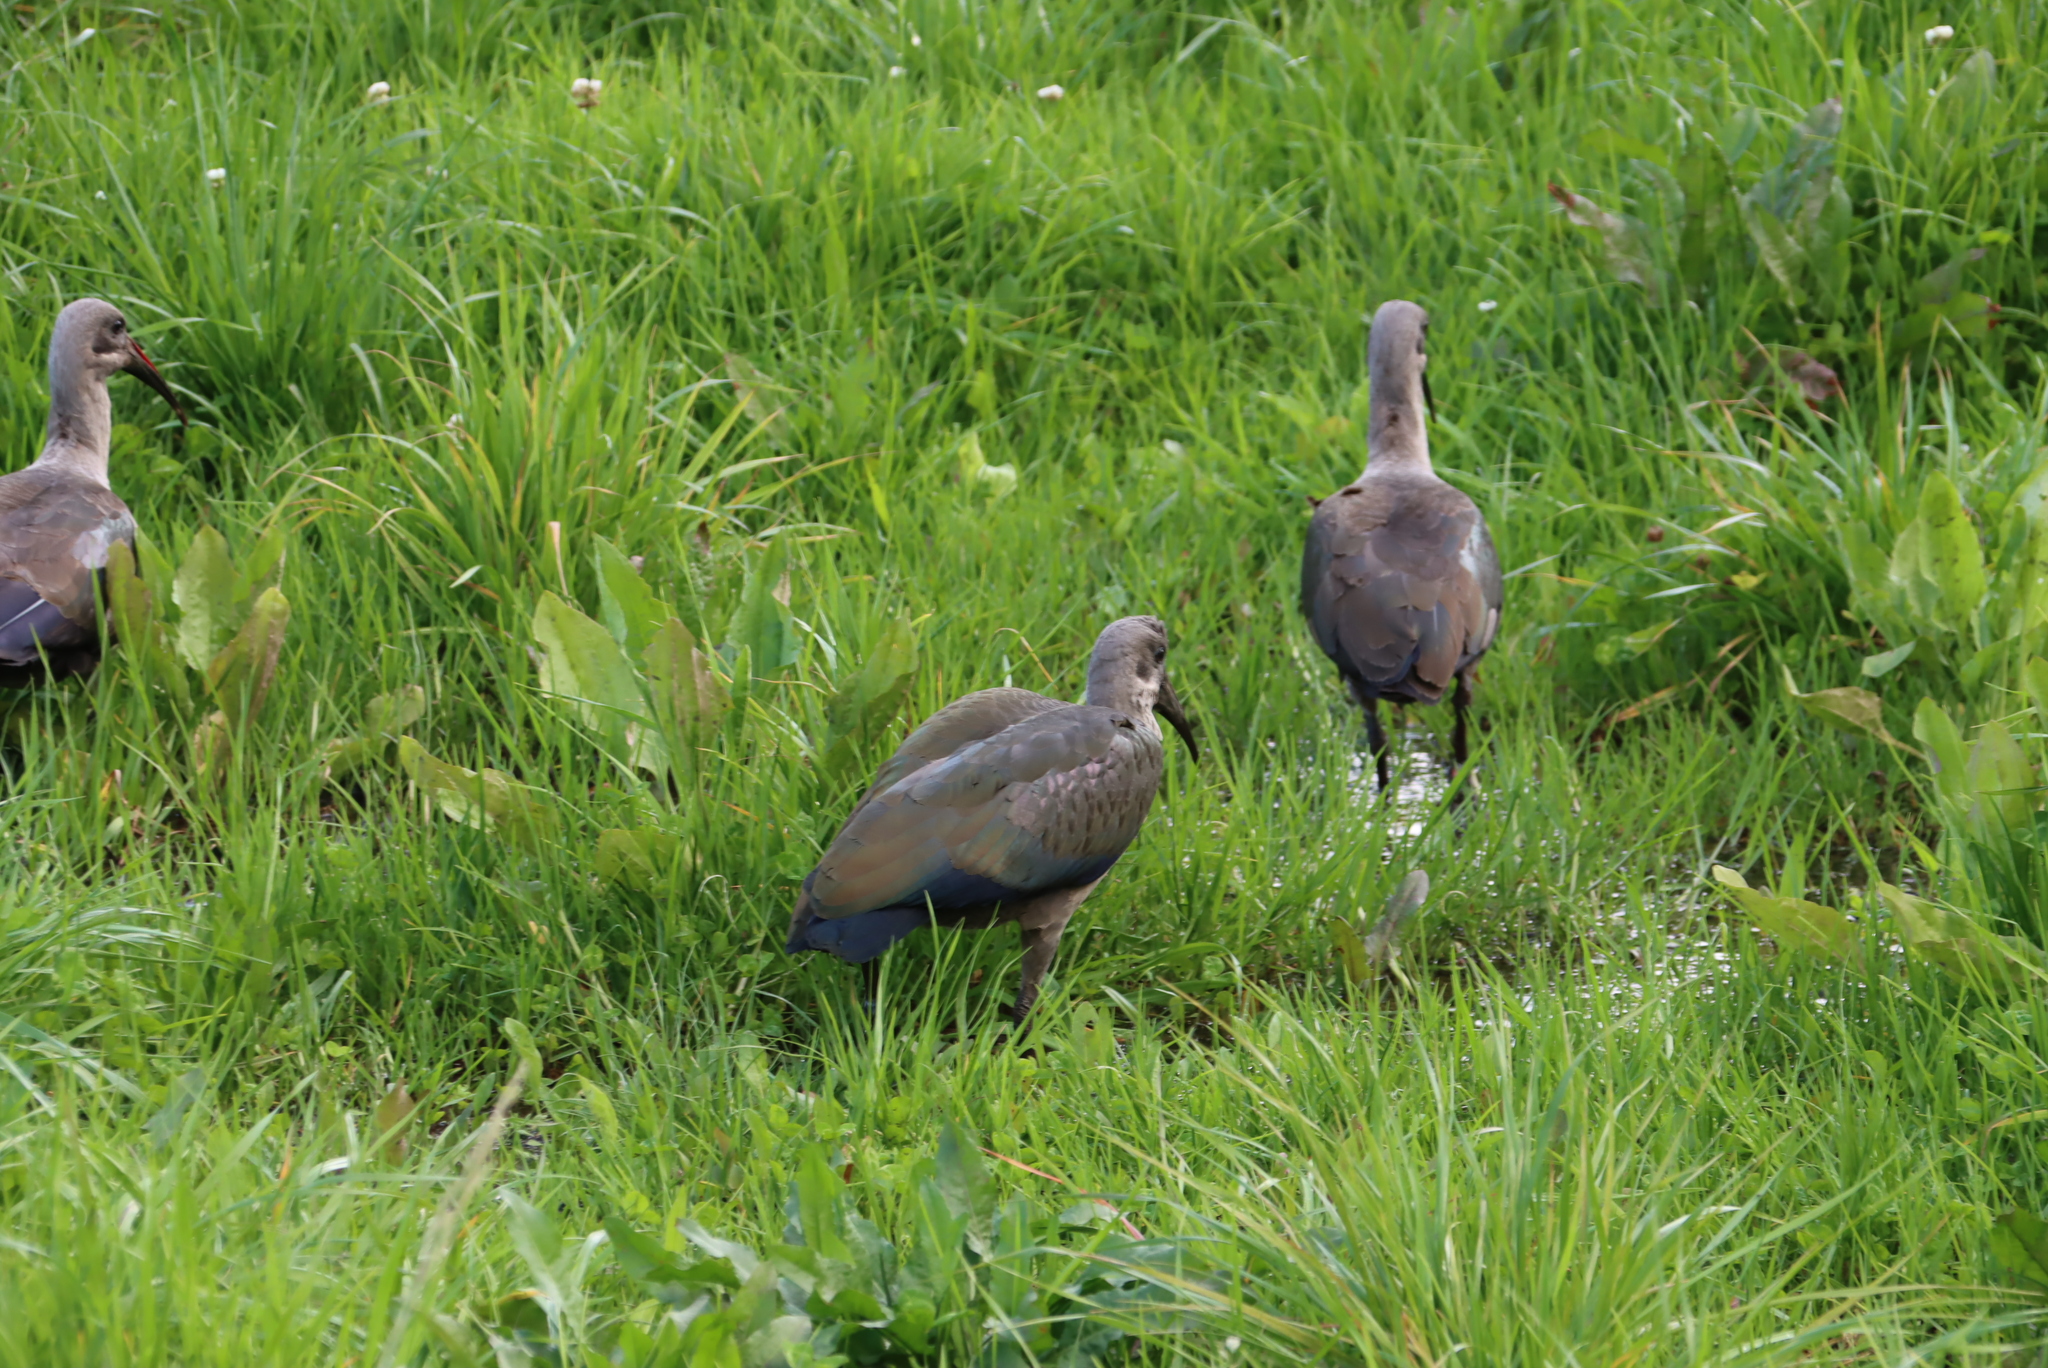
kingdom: Animalia
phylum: Chordata
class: Aves
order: Pelecaniformes
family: Threskiornithidae
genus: Bostrychia
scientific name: Bostrychia hagedash
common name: Hadada ibis
